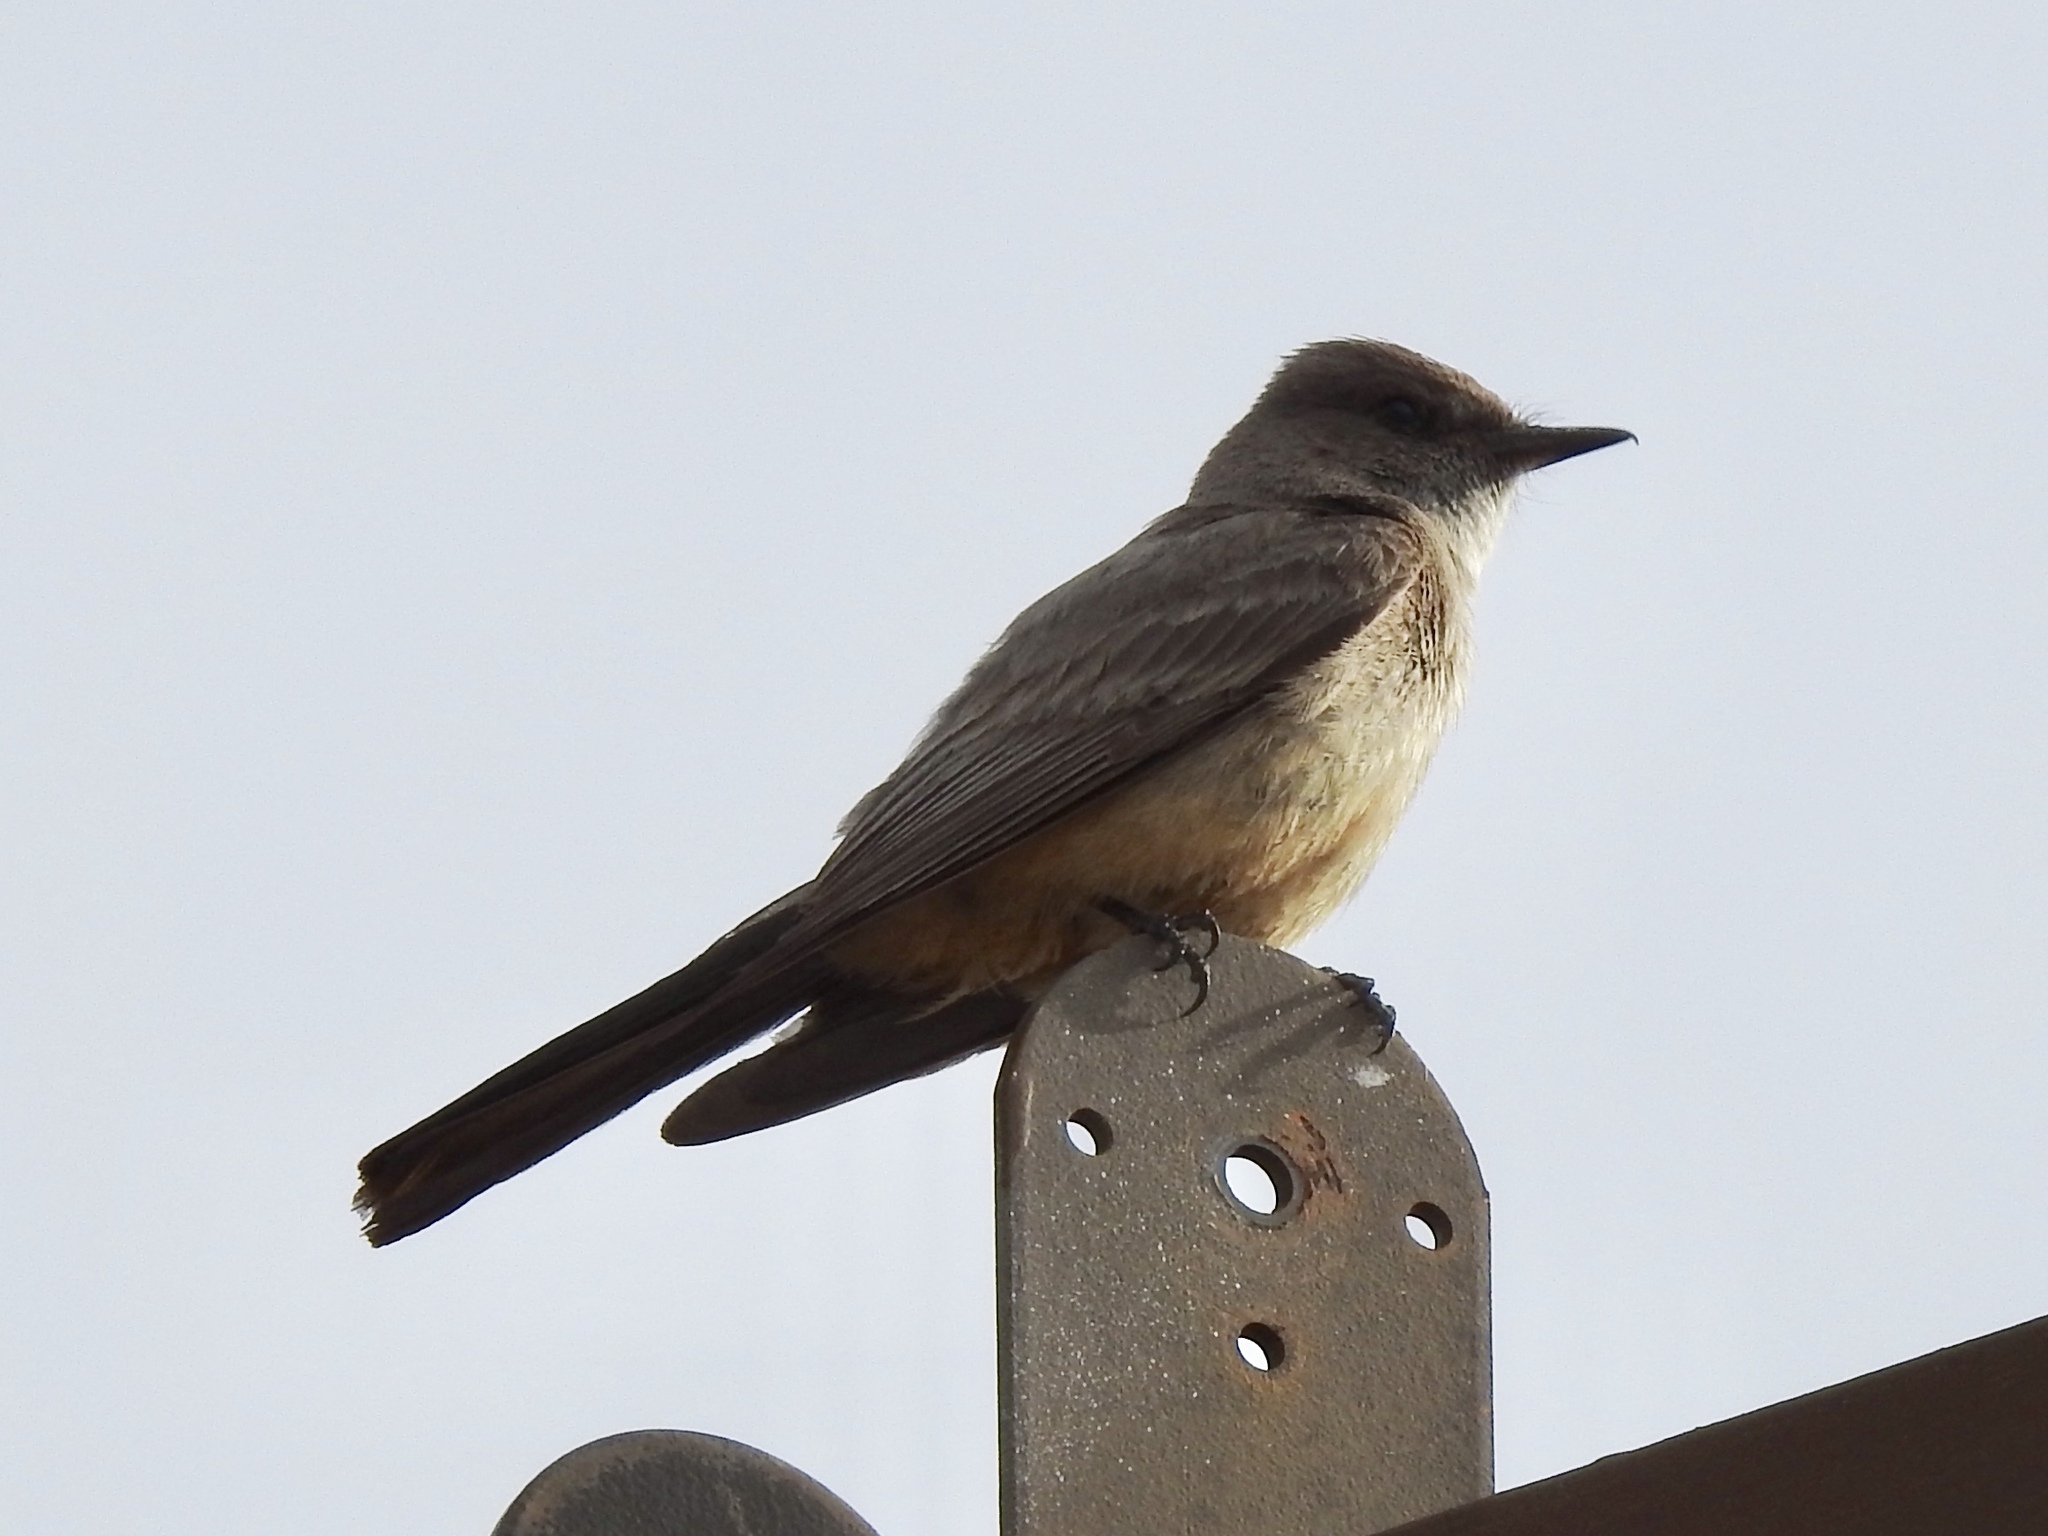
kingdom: Animalia
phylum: Chordata
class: Aves
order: Passeriformes
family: Tyrannidae
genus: Sayornis
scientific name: Sayornis saya
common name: Say's phoebe
